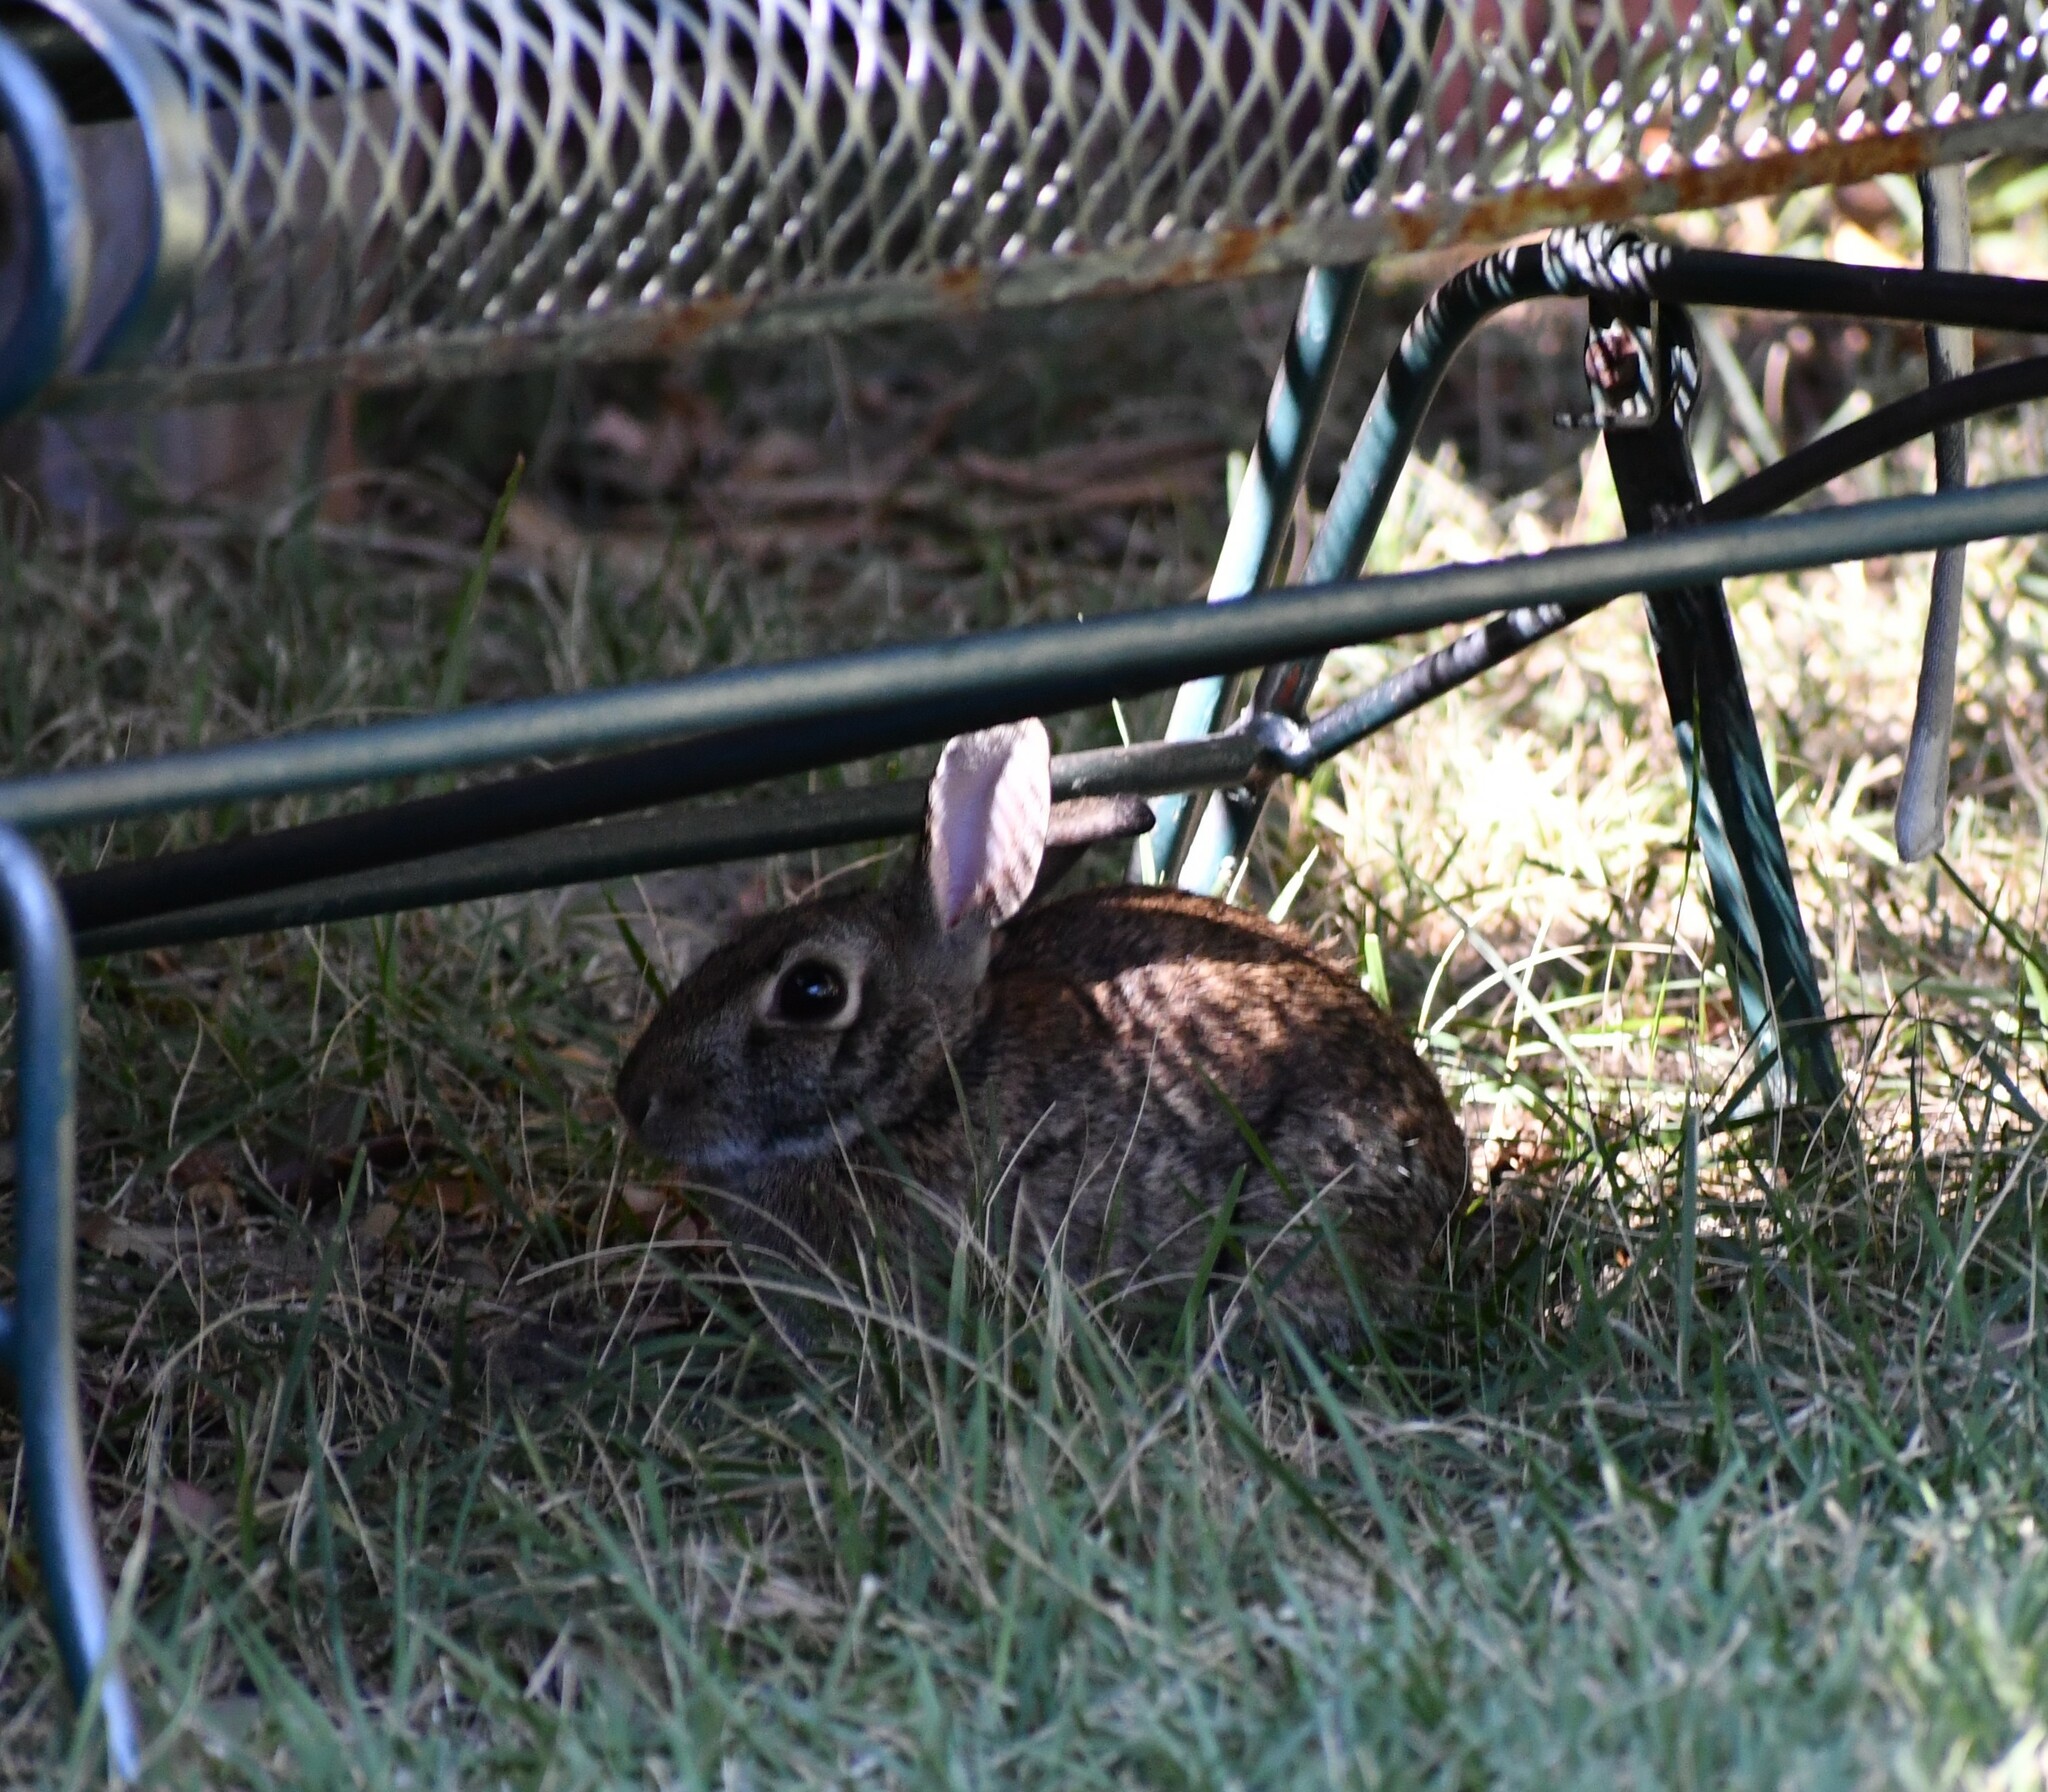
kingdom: Animalia
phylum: Chordata
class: Mammalia
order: Lagomorpha
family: Leporidae
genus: Sylvilagus
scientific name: Sylvilagus floridanus
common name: Eastern cottontail
